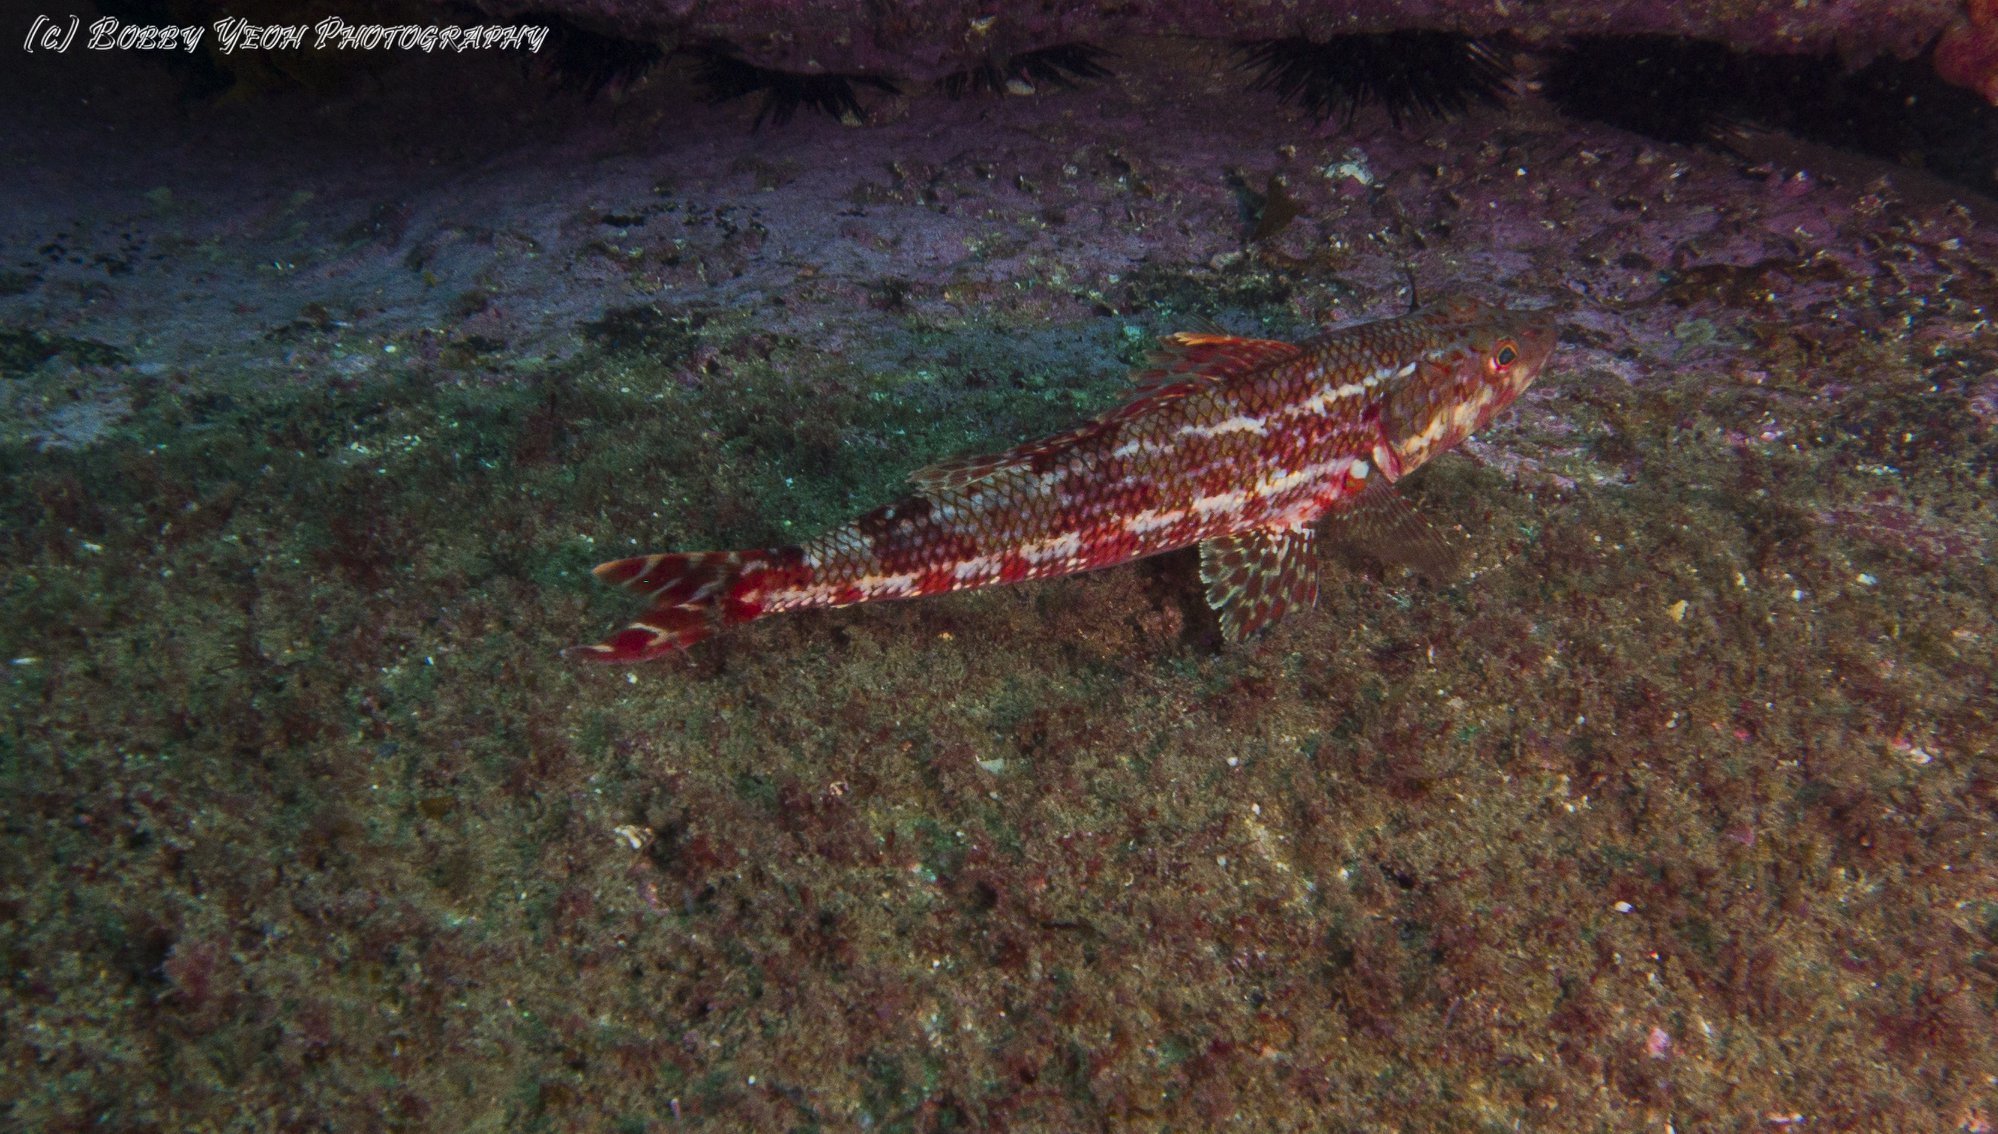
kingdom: Animalia
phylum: Chordata
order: Aulopiformes
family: Aulopidae
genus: Latropiscis
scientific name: Latropiscis purpurissatus
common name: Sergeant baker
